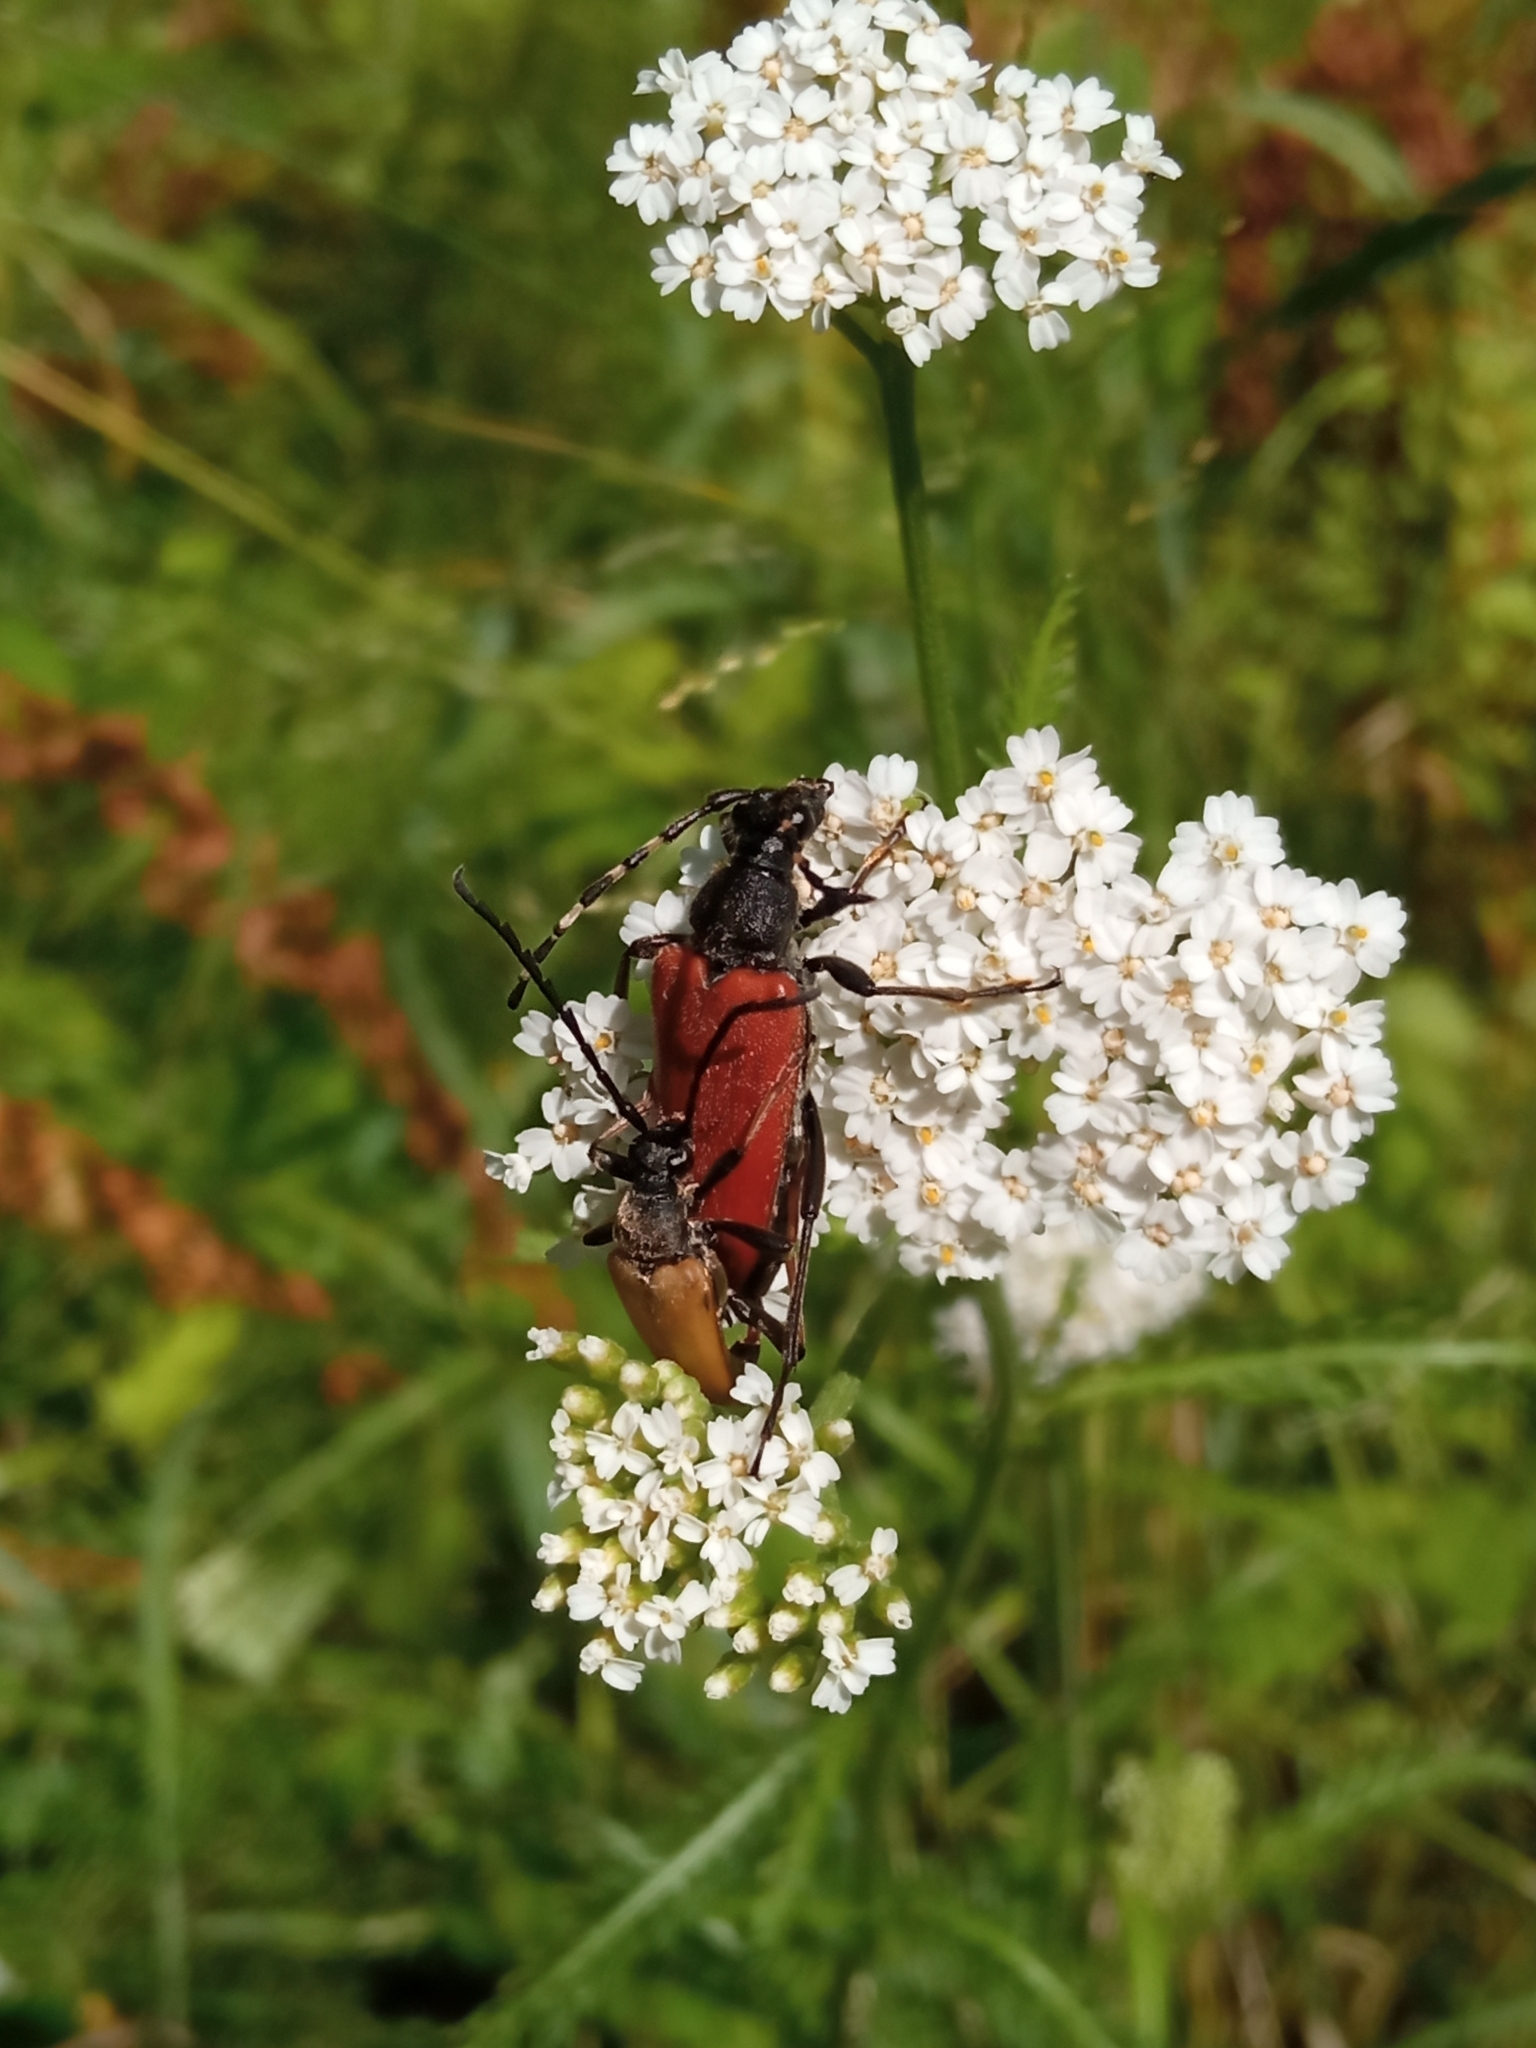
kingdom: Animalia
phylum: Arthropoda
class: Insecta
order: Coleoptera
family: Cerambycidae
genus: Stictoleptura
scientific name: Stictoleptura variicornis
